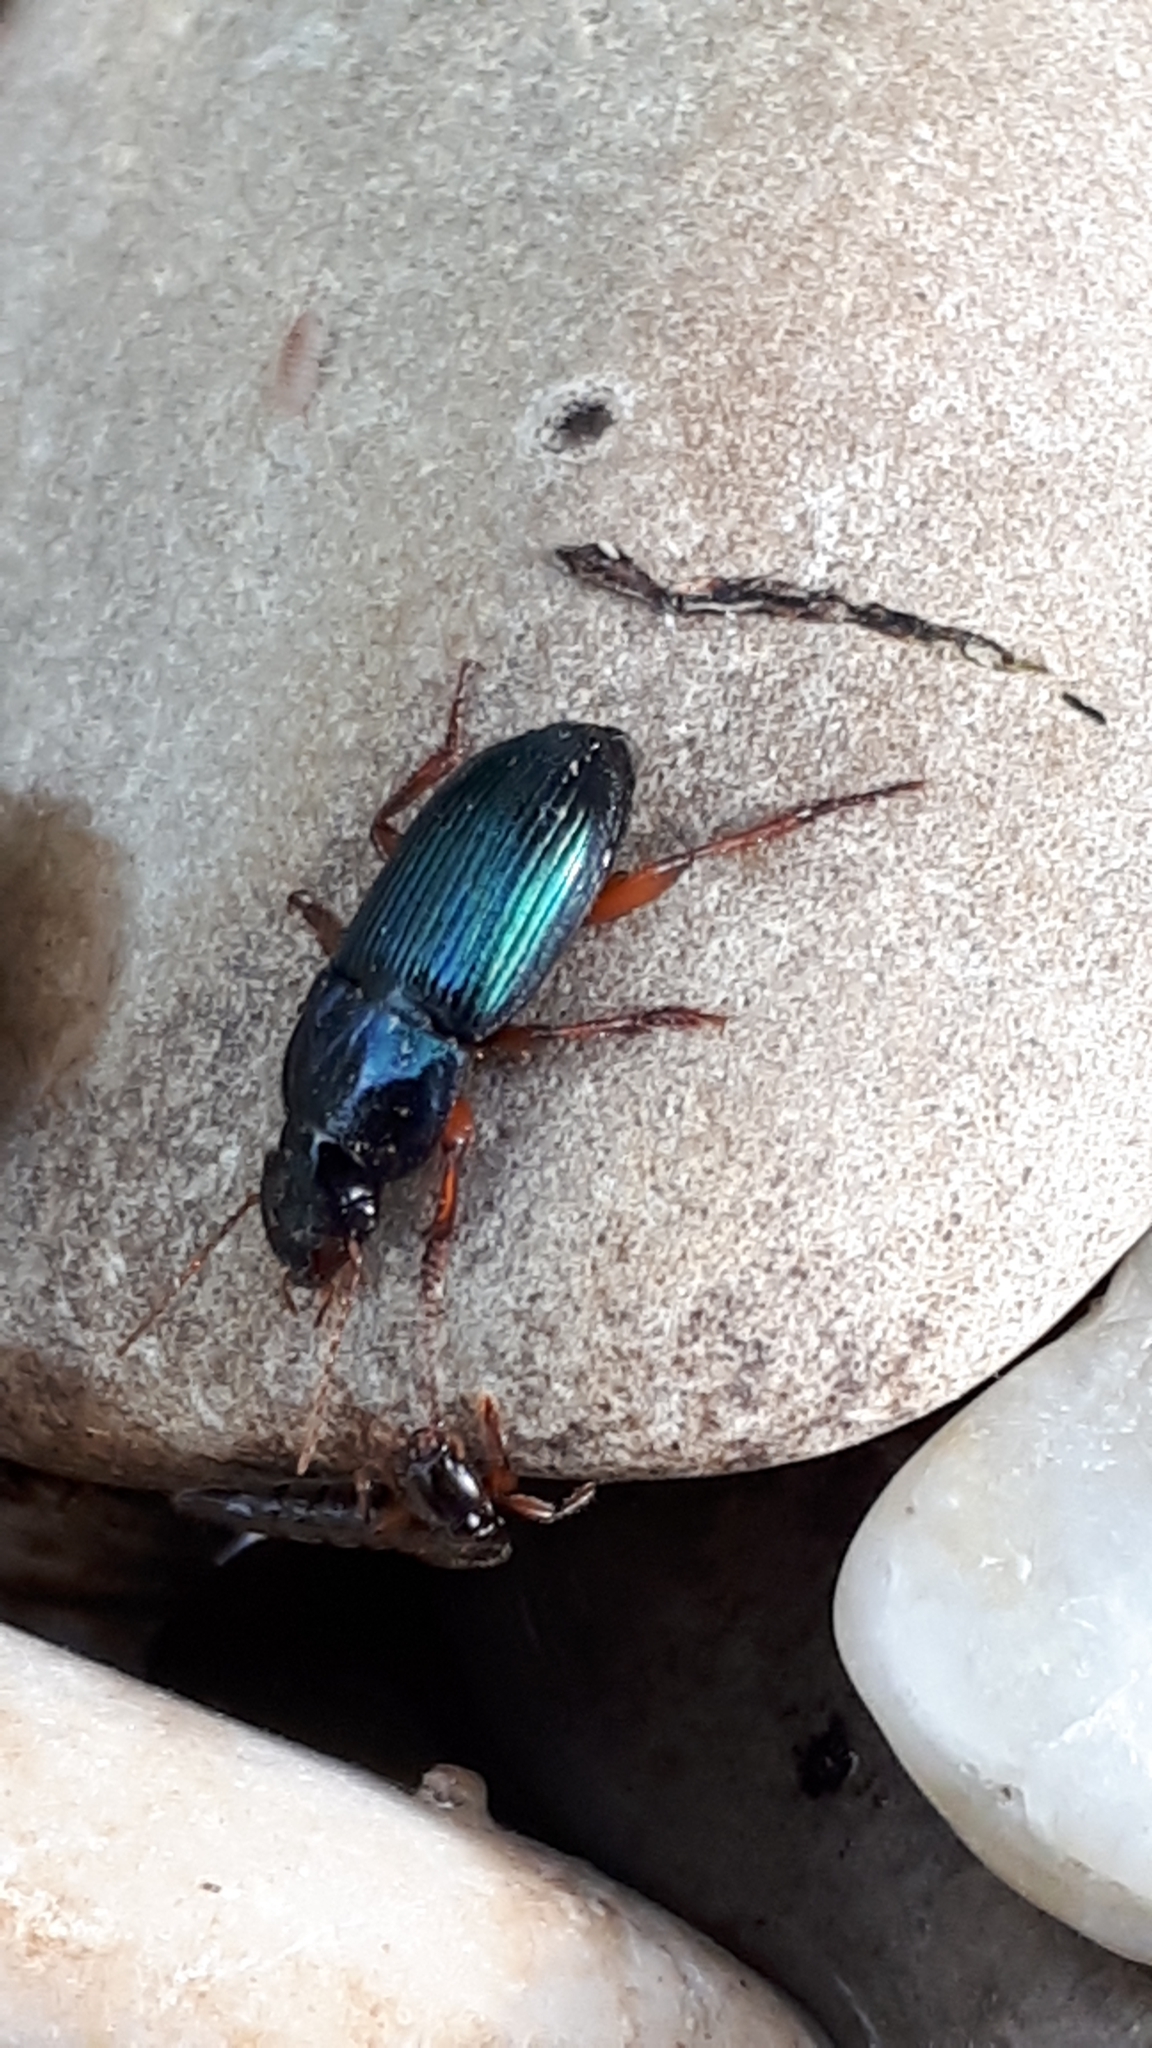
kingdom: Animalia
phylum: Arthropoda
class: Insecta
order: Coleoptera
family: Carabidae
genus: Harpalus
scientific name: Harpalus rubripes
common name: Red-legged harp ground beetle
